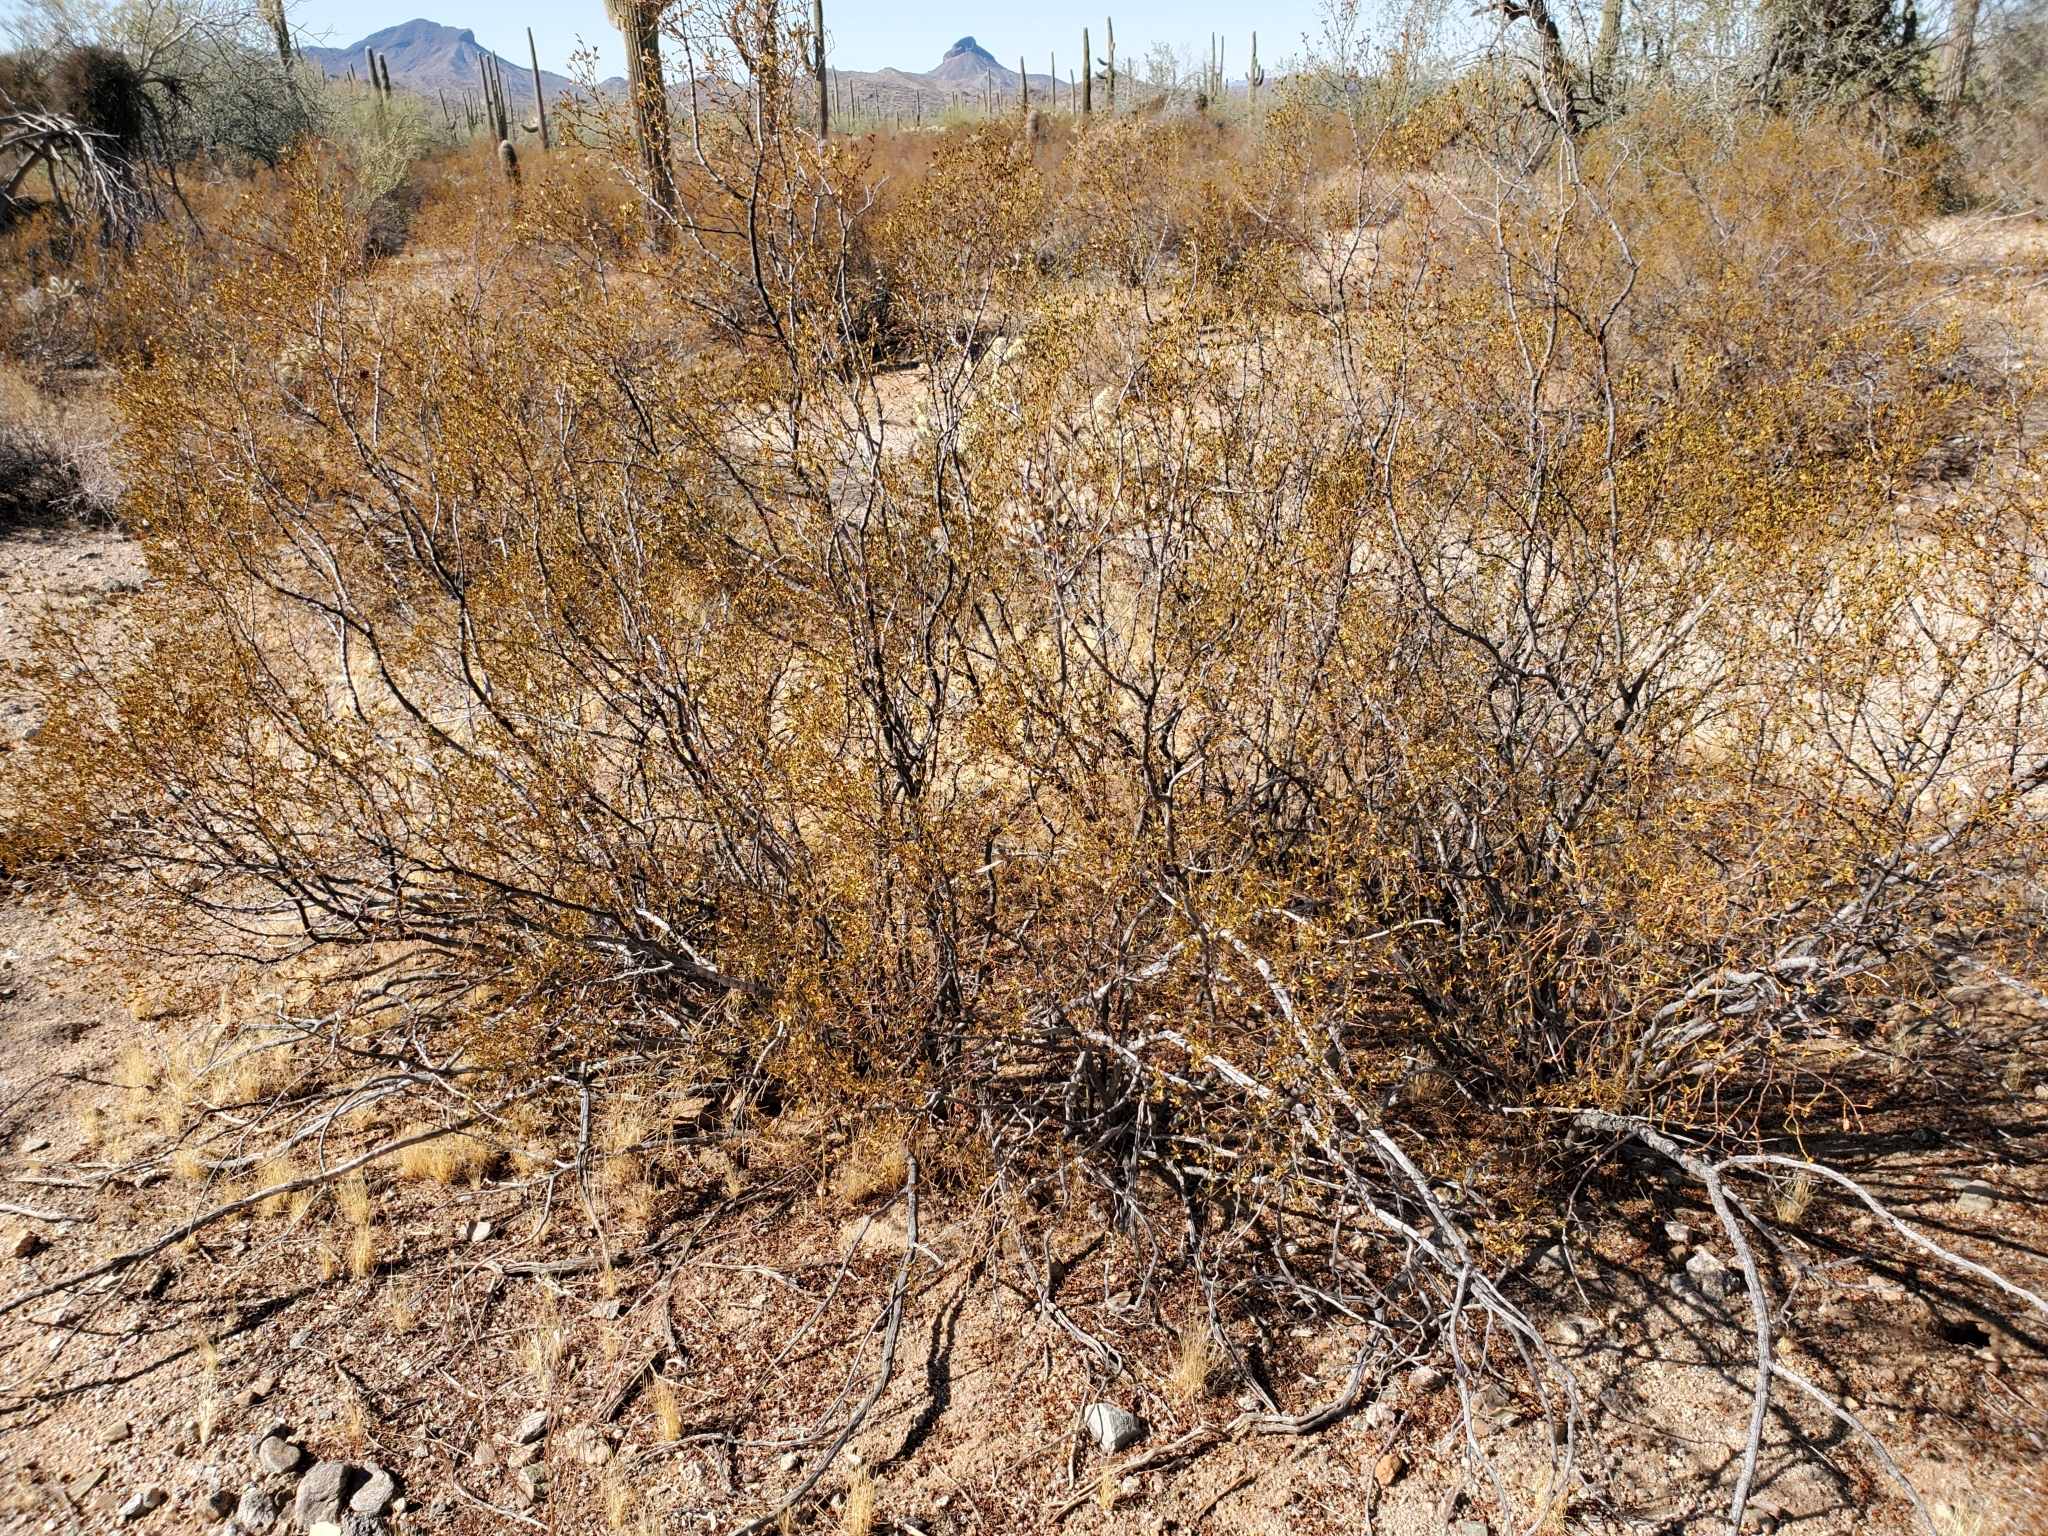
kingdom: Plantae
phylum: Tracheophyta
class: Magnoliopsida
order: Zygophyllales
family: Zygophyllaceae
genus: Larrea
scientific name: Larrea tridentata
